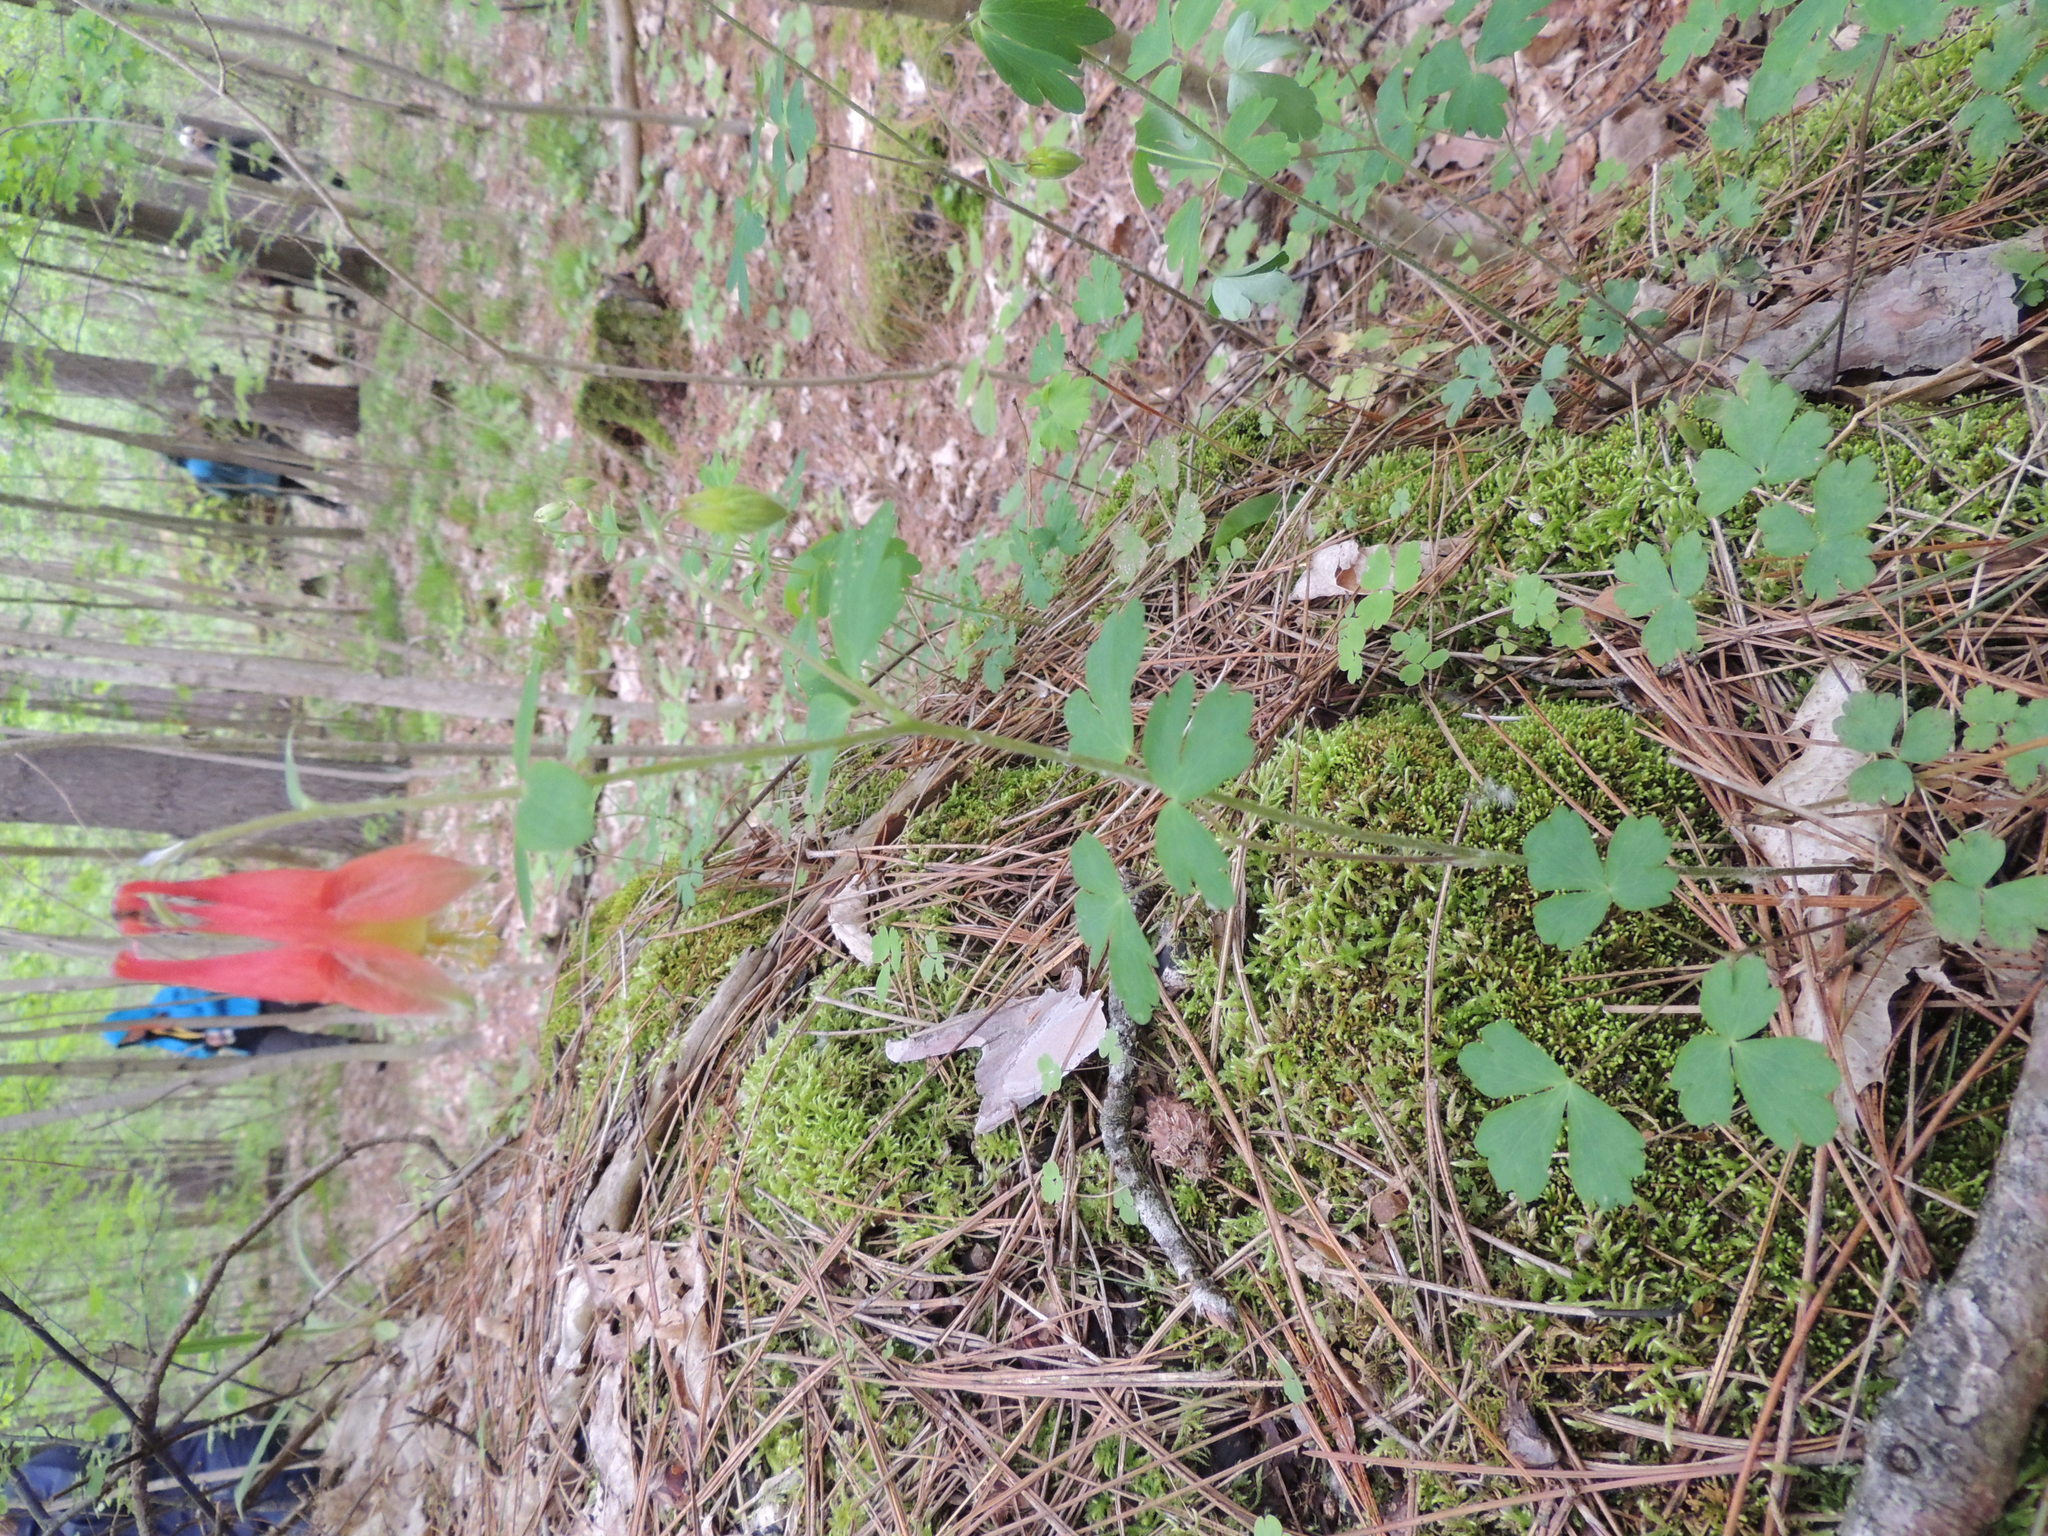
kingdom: Plantae
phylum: Tracheophyta
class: Magnoliopsida
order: Ranunculales
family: Ranunculaceae
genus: Aquilegia
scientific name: Aquilegia canadensis
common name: American columbine
